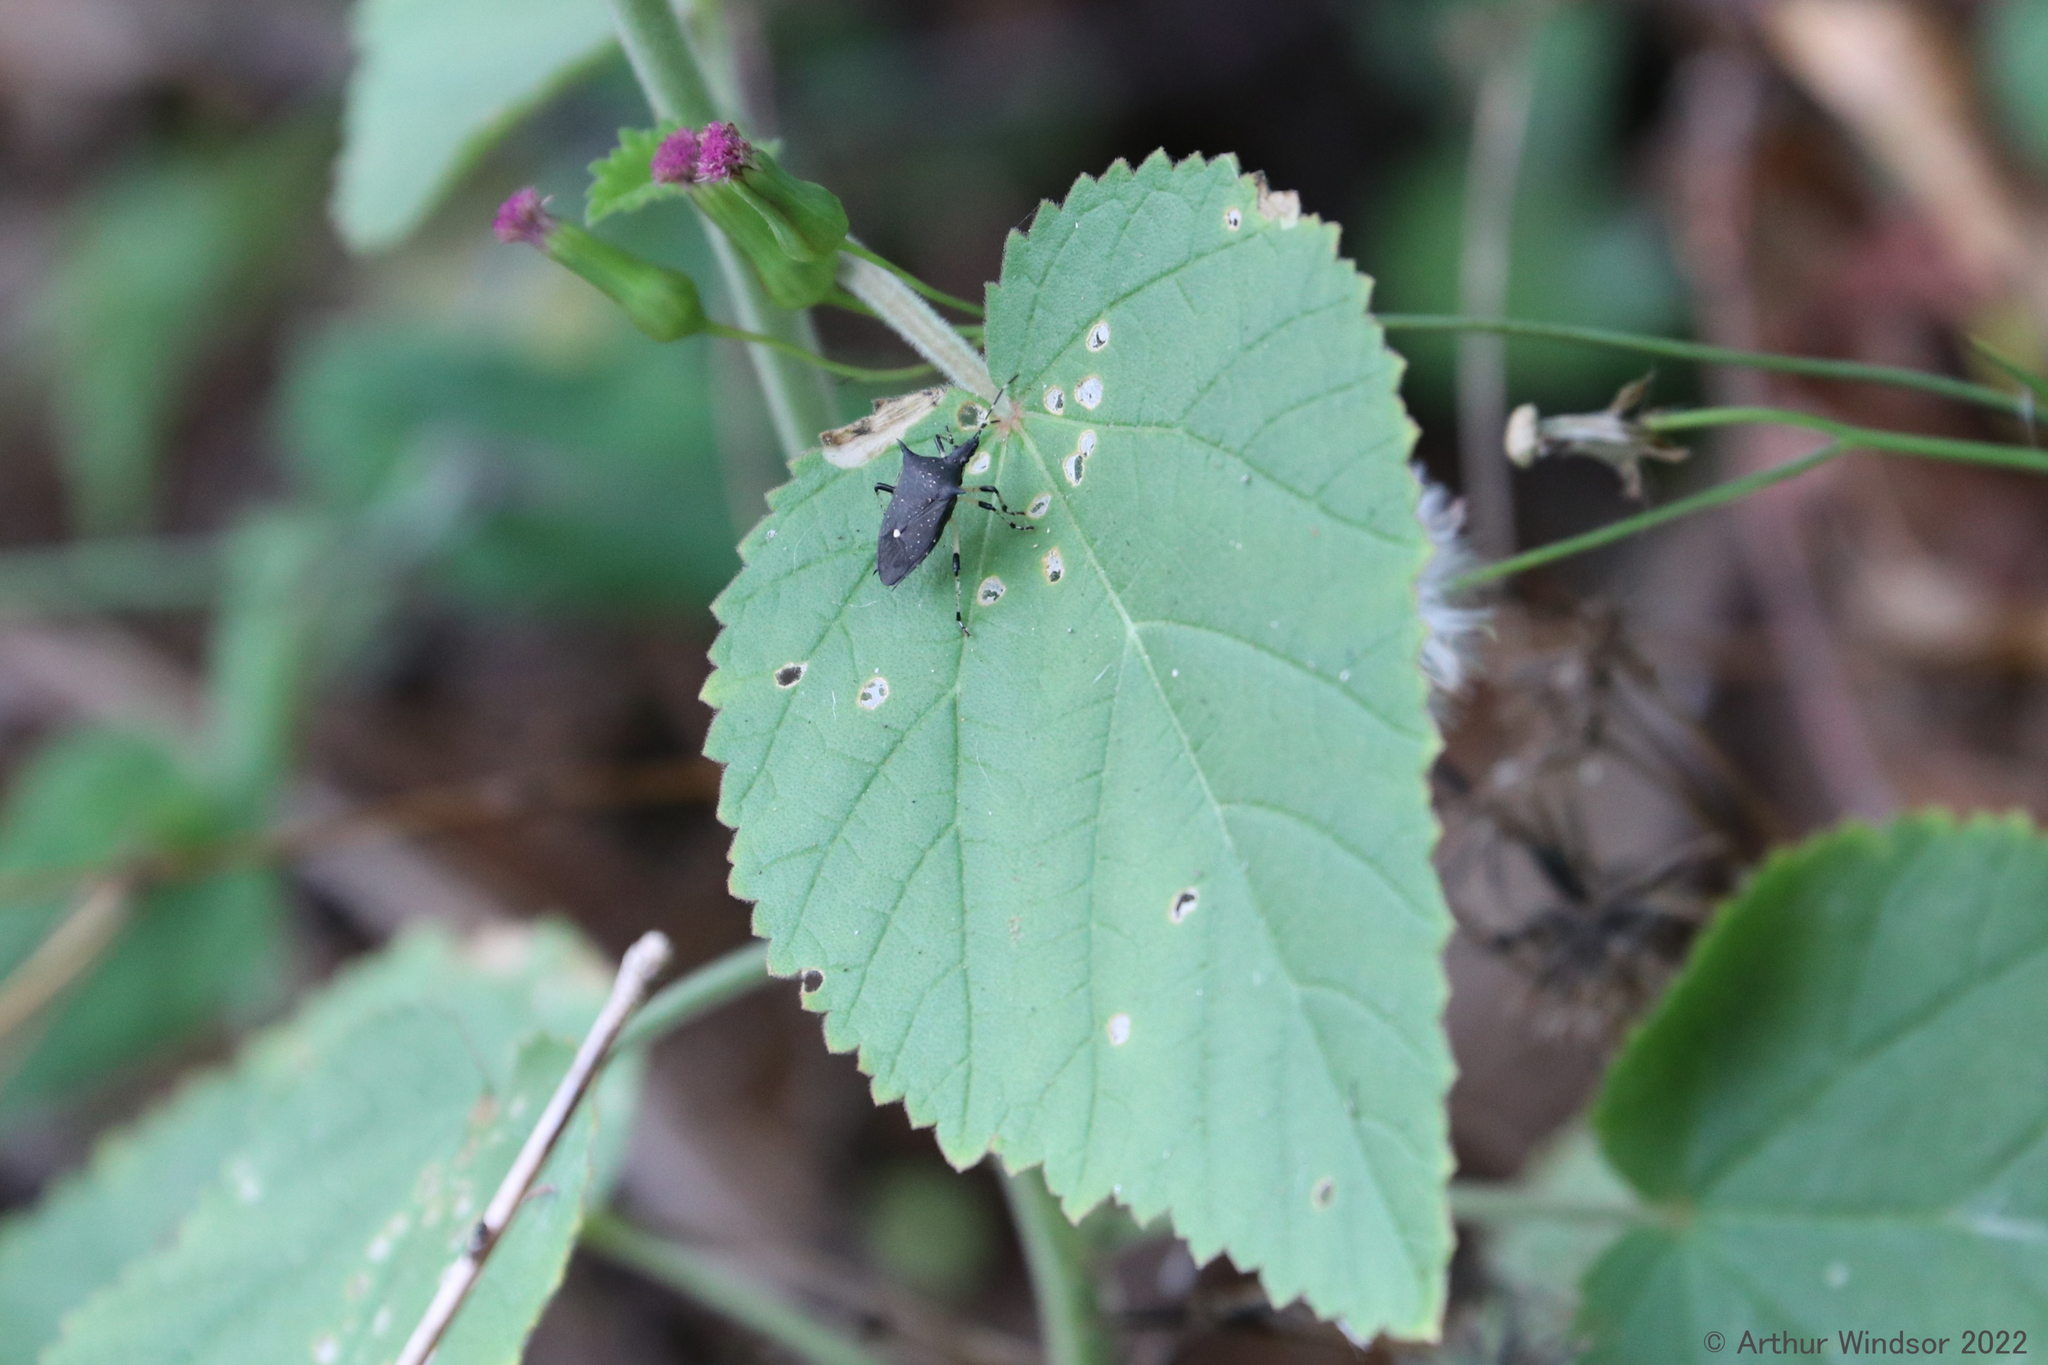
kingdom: Animalia
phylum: Arthropoda
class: Insecta
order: Hemiptera
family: Pentatomidae
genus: Proxys
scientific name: Proxys punctulatus
